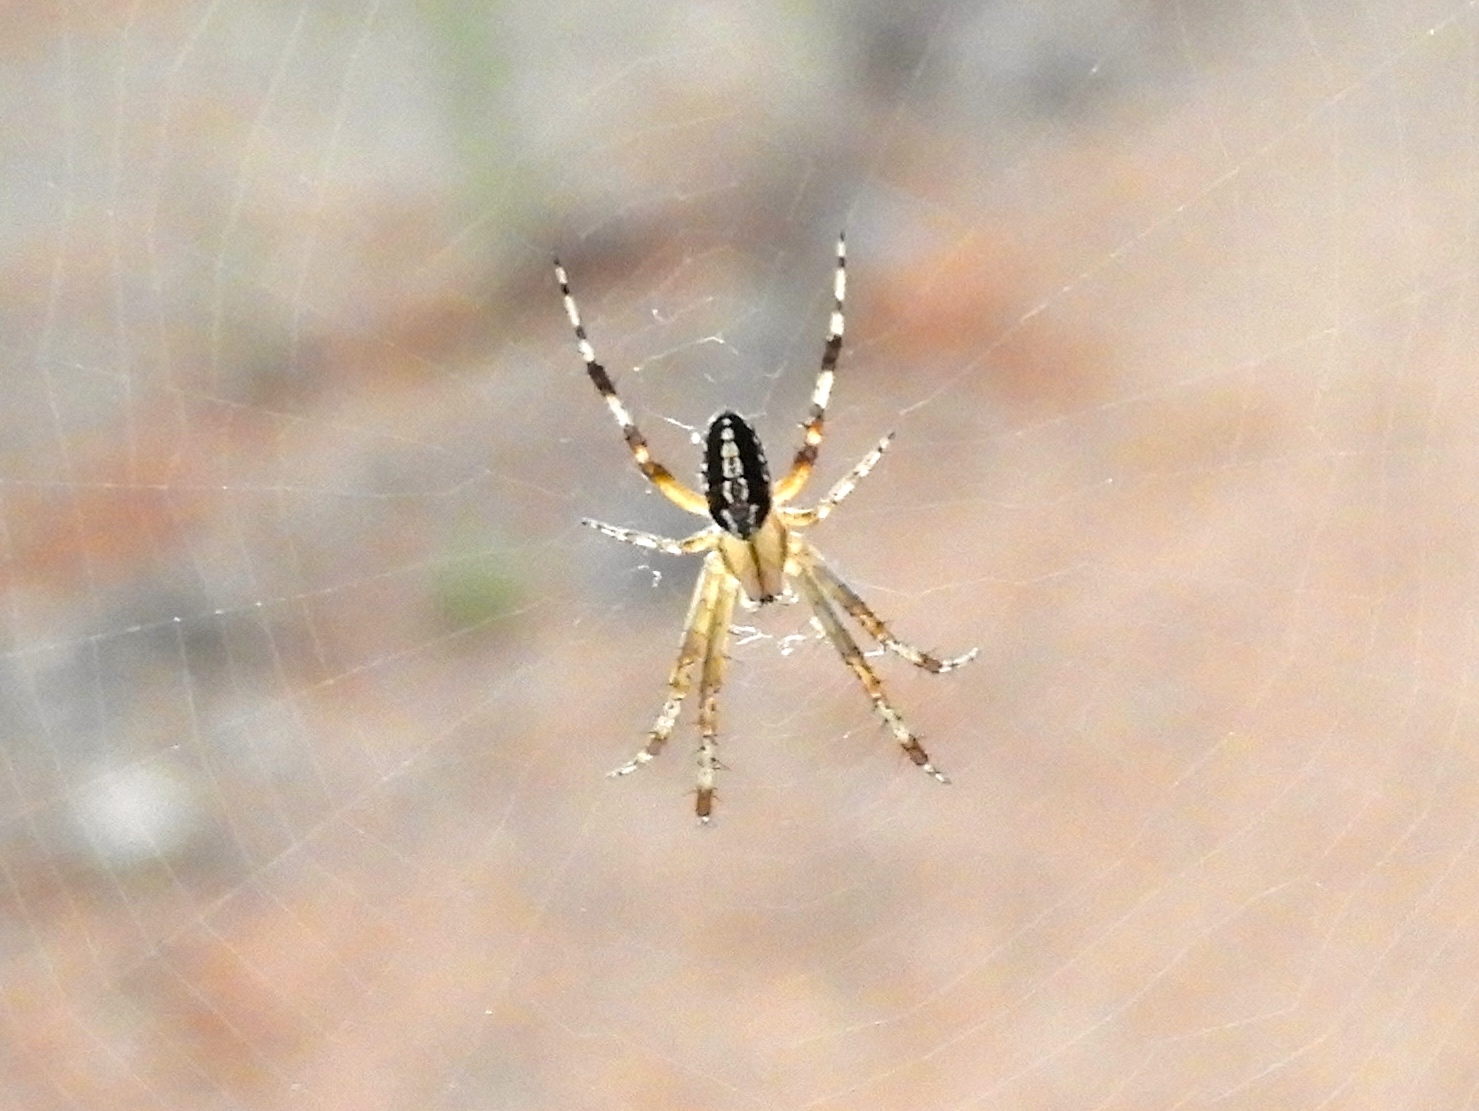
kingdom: Animalia
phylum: Arthropoda
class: Arachnida
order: Araneae
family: Araneidae
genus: Neoscona
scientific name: Neoscona oaxacensis
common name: Orb weavers
